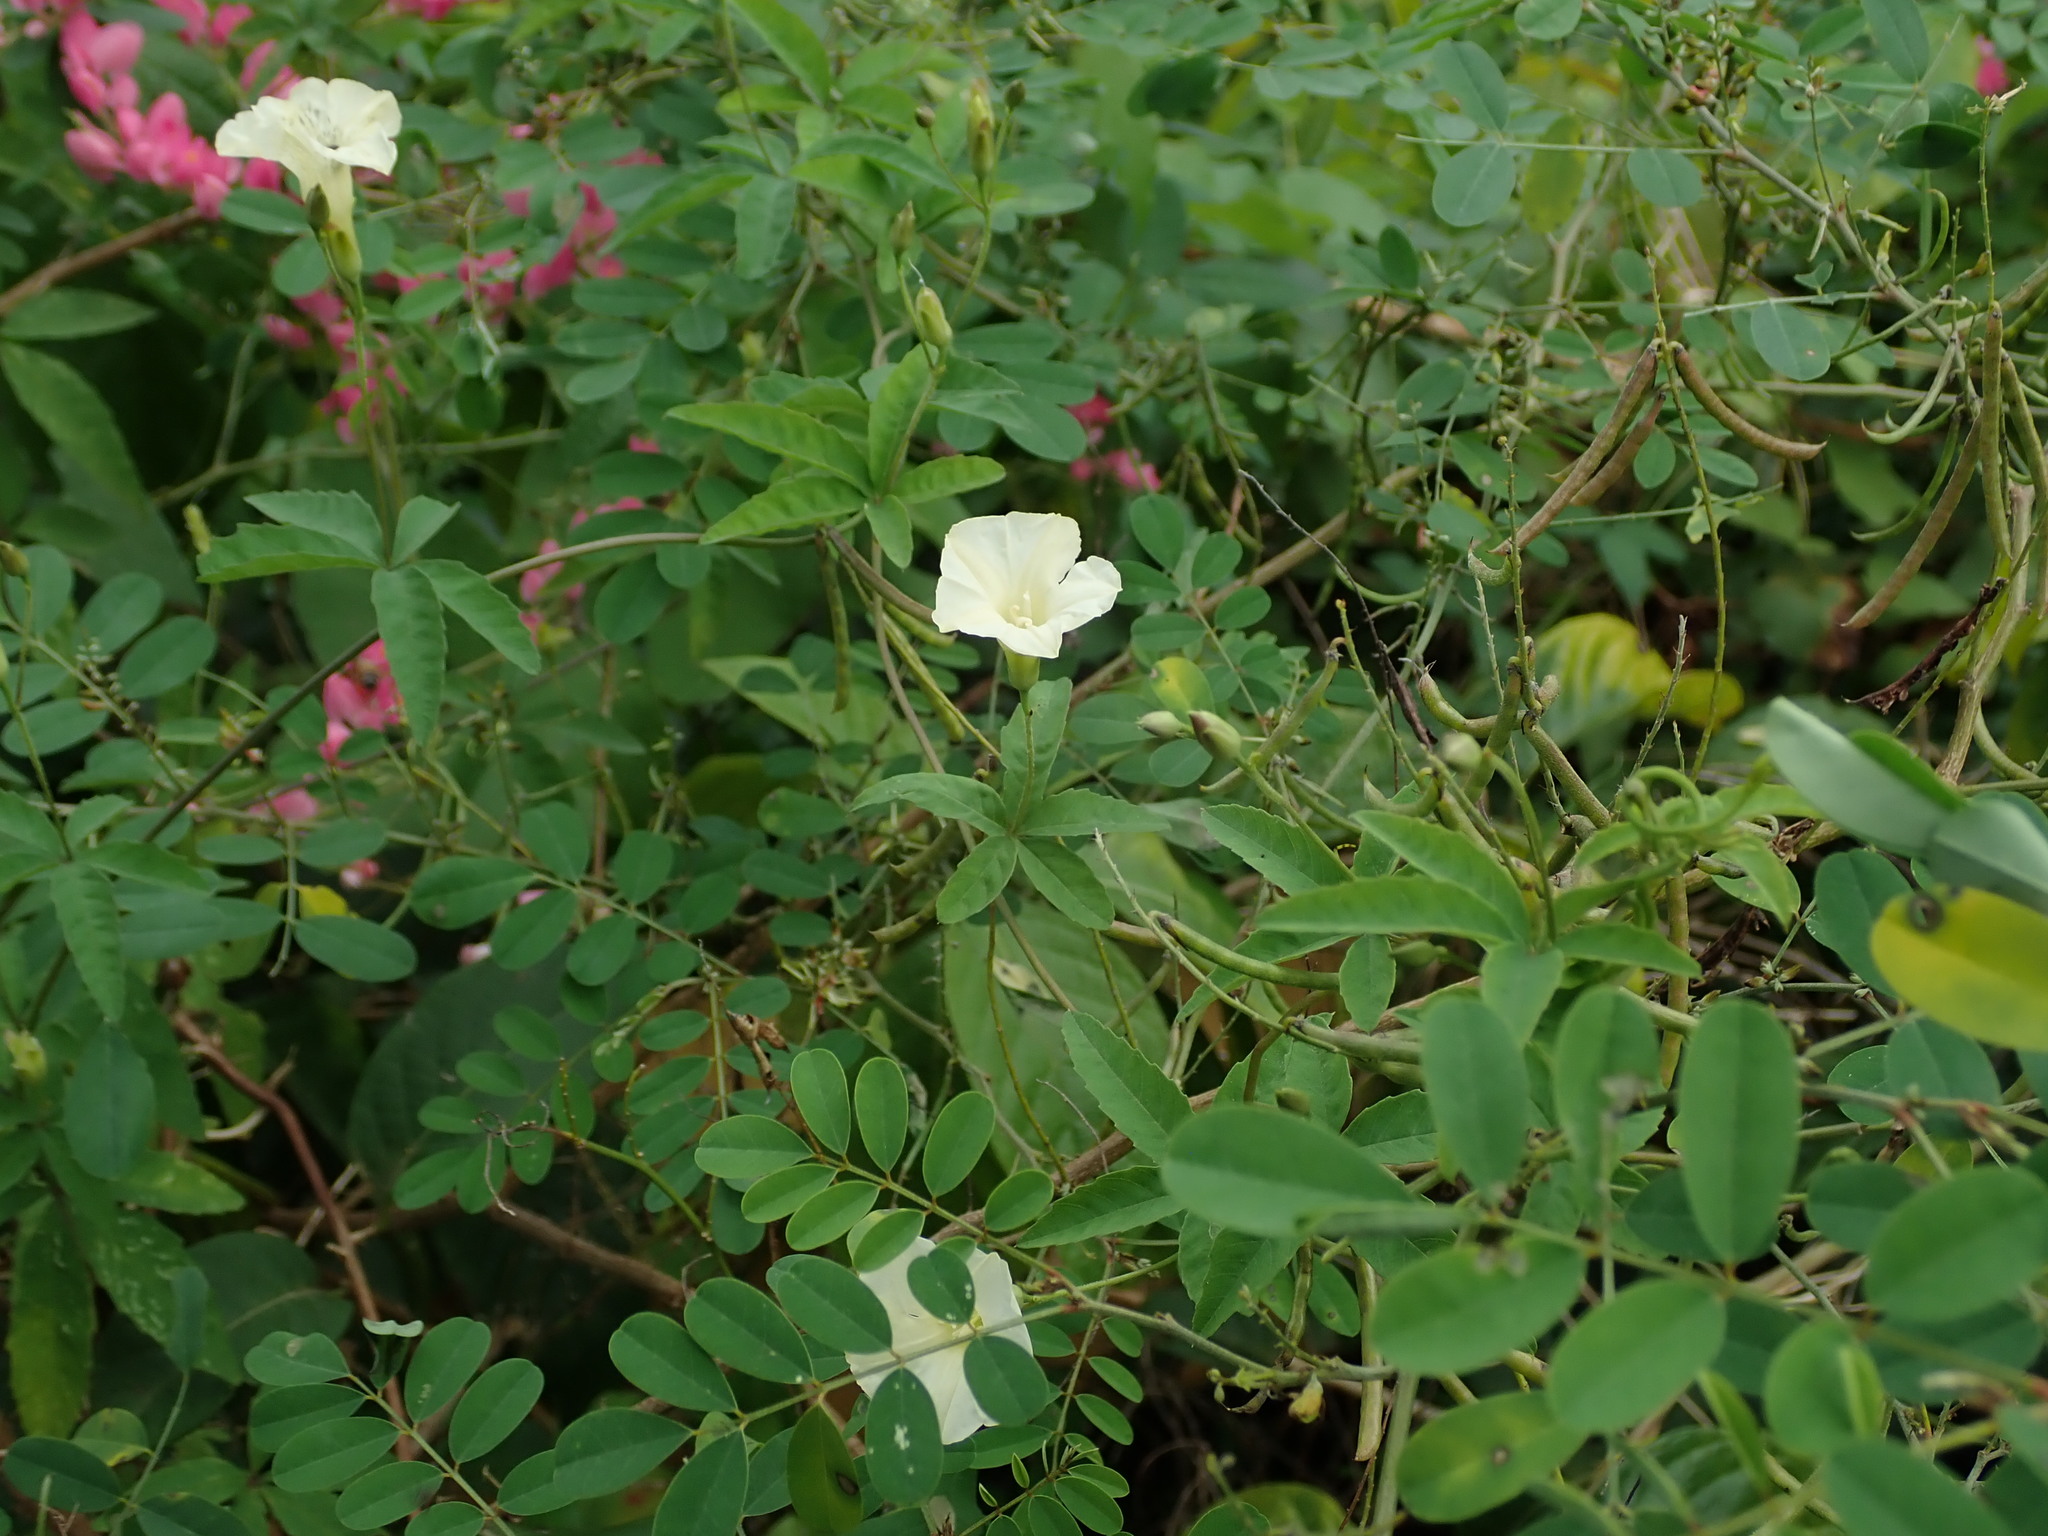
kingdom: Plantae
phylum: Tracheophyta
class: Magnoliopsida
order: Solanales
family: Convolvulaceae
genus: Distimake
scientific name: Distimake quinquefolius
